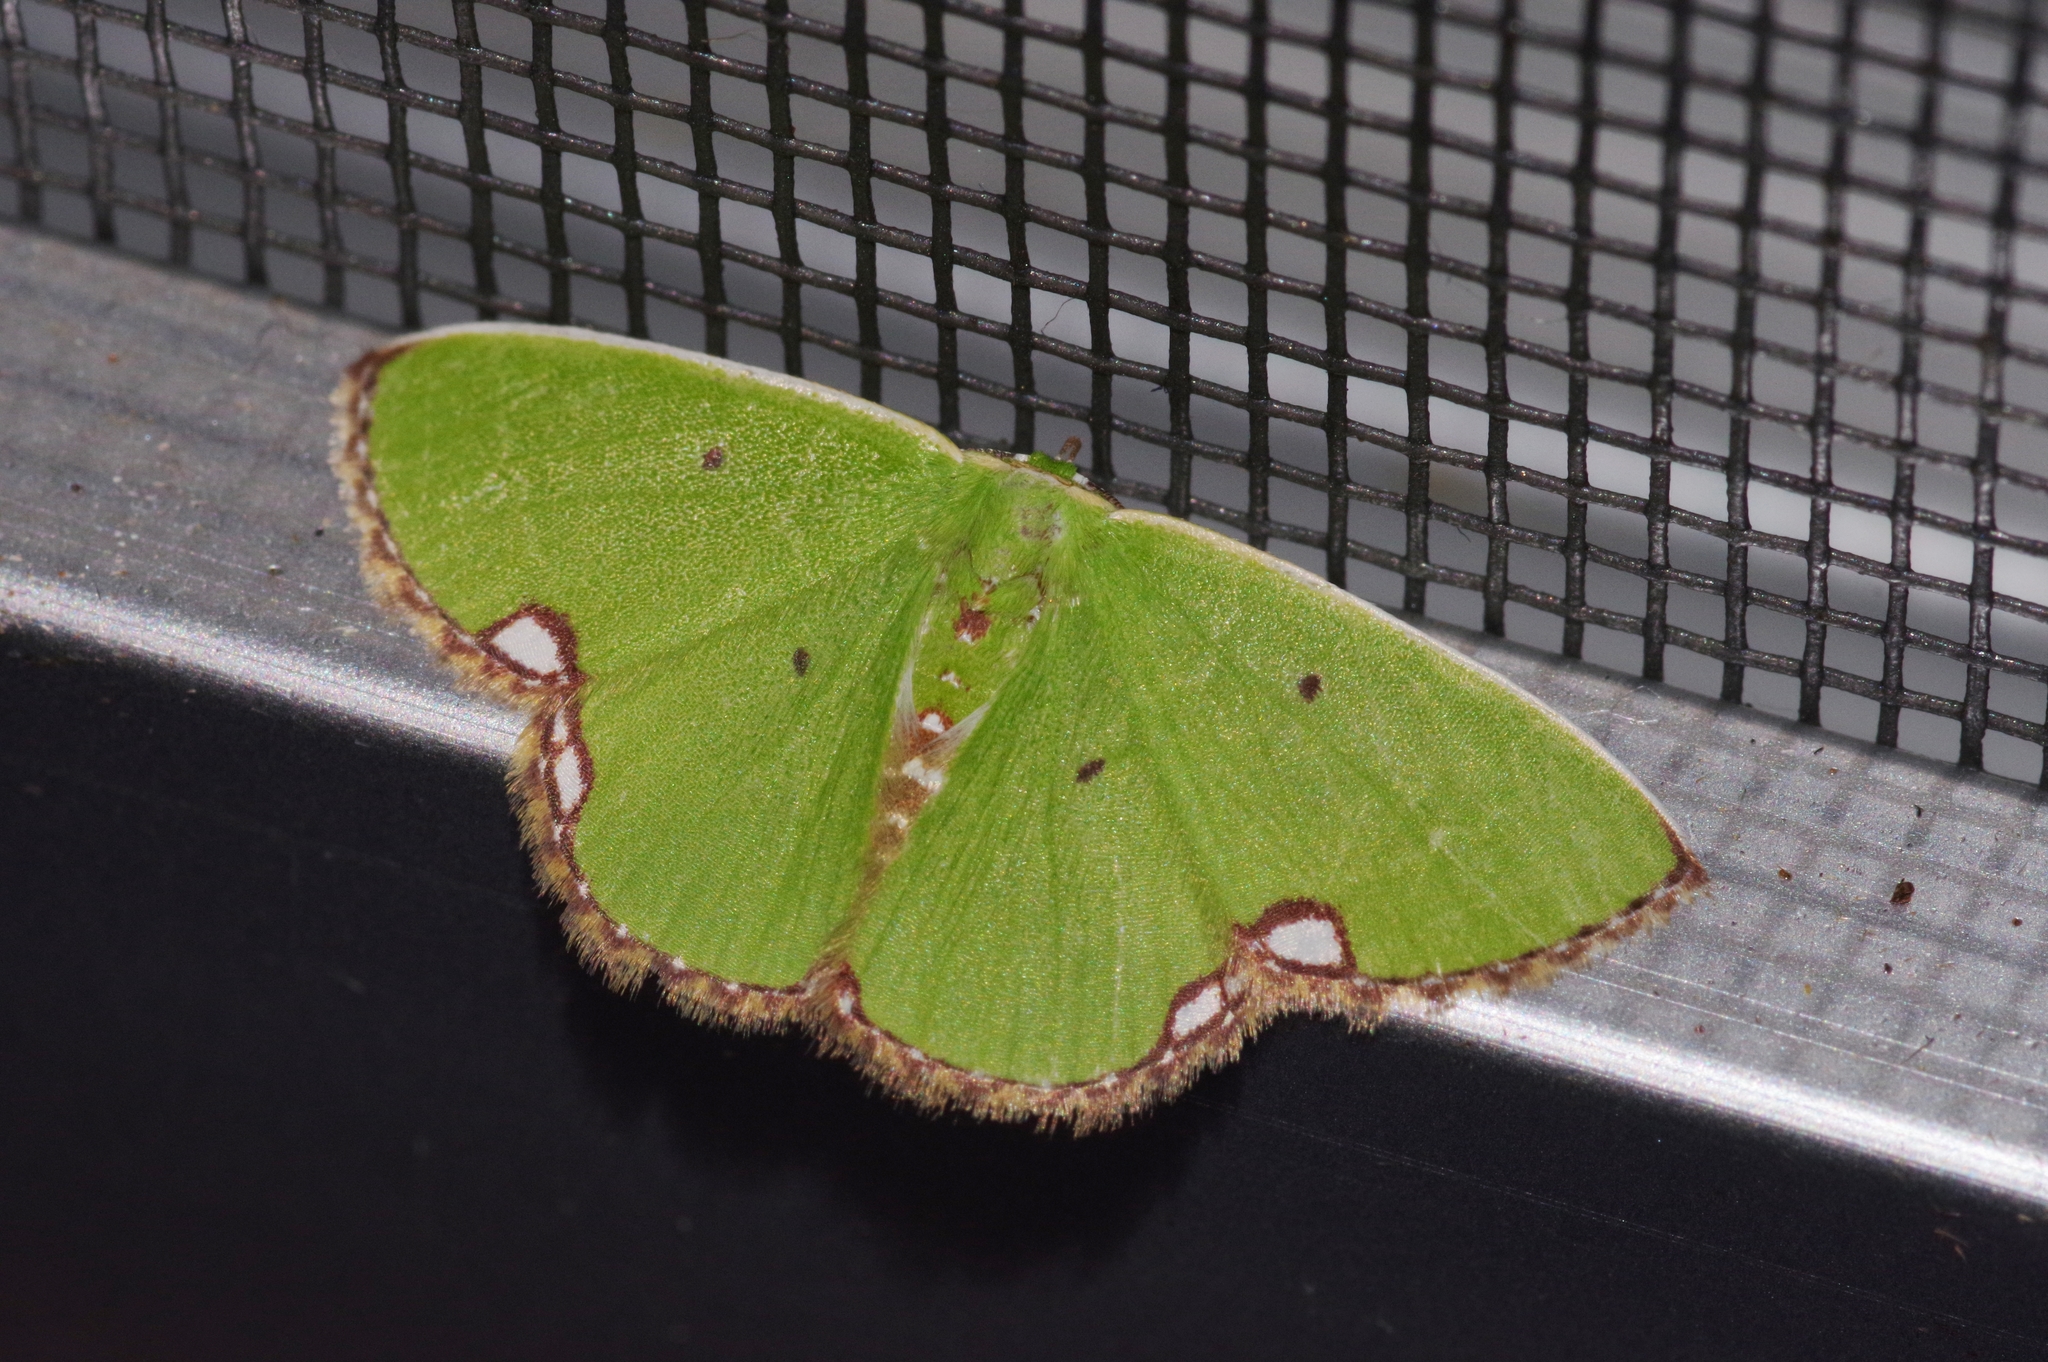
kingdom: Animalia
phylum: Arthropoda
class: Insecta
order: Lepidoptera
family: Geometridae
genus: Comibaena
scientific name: Comibaena procumbaria
